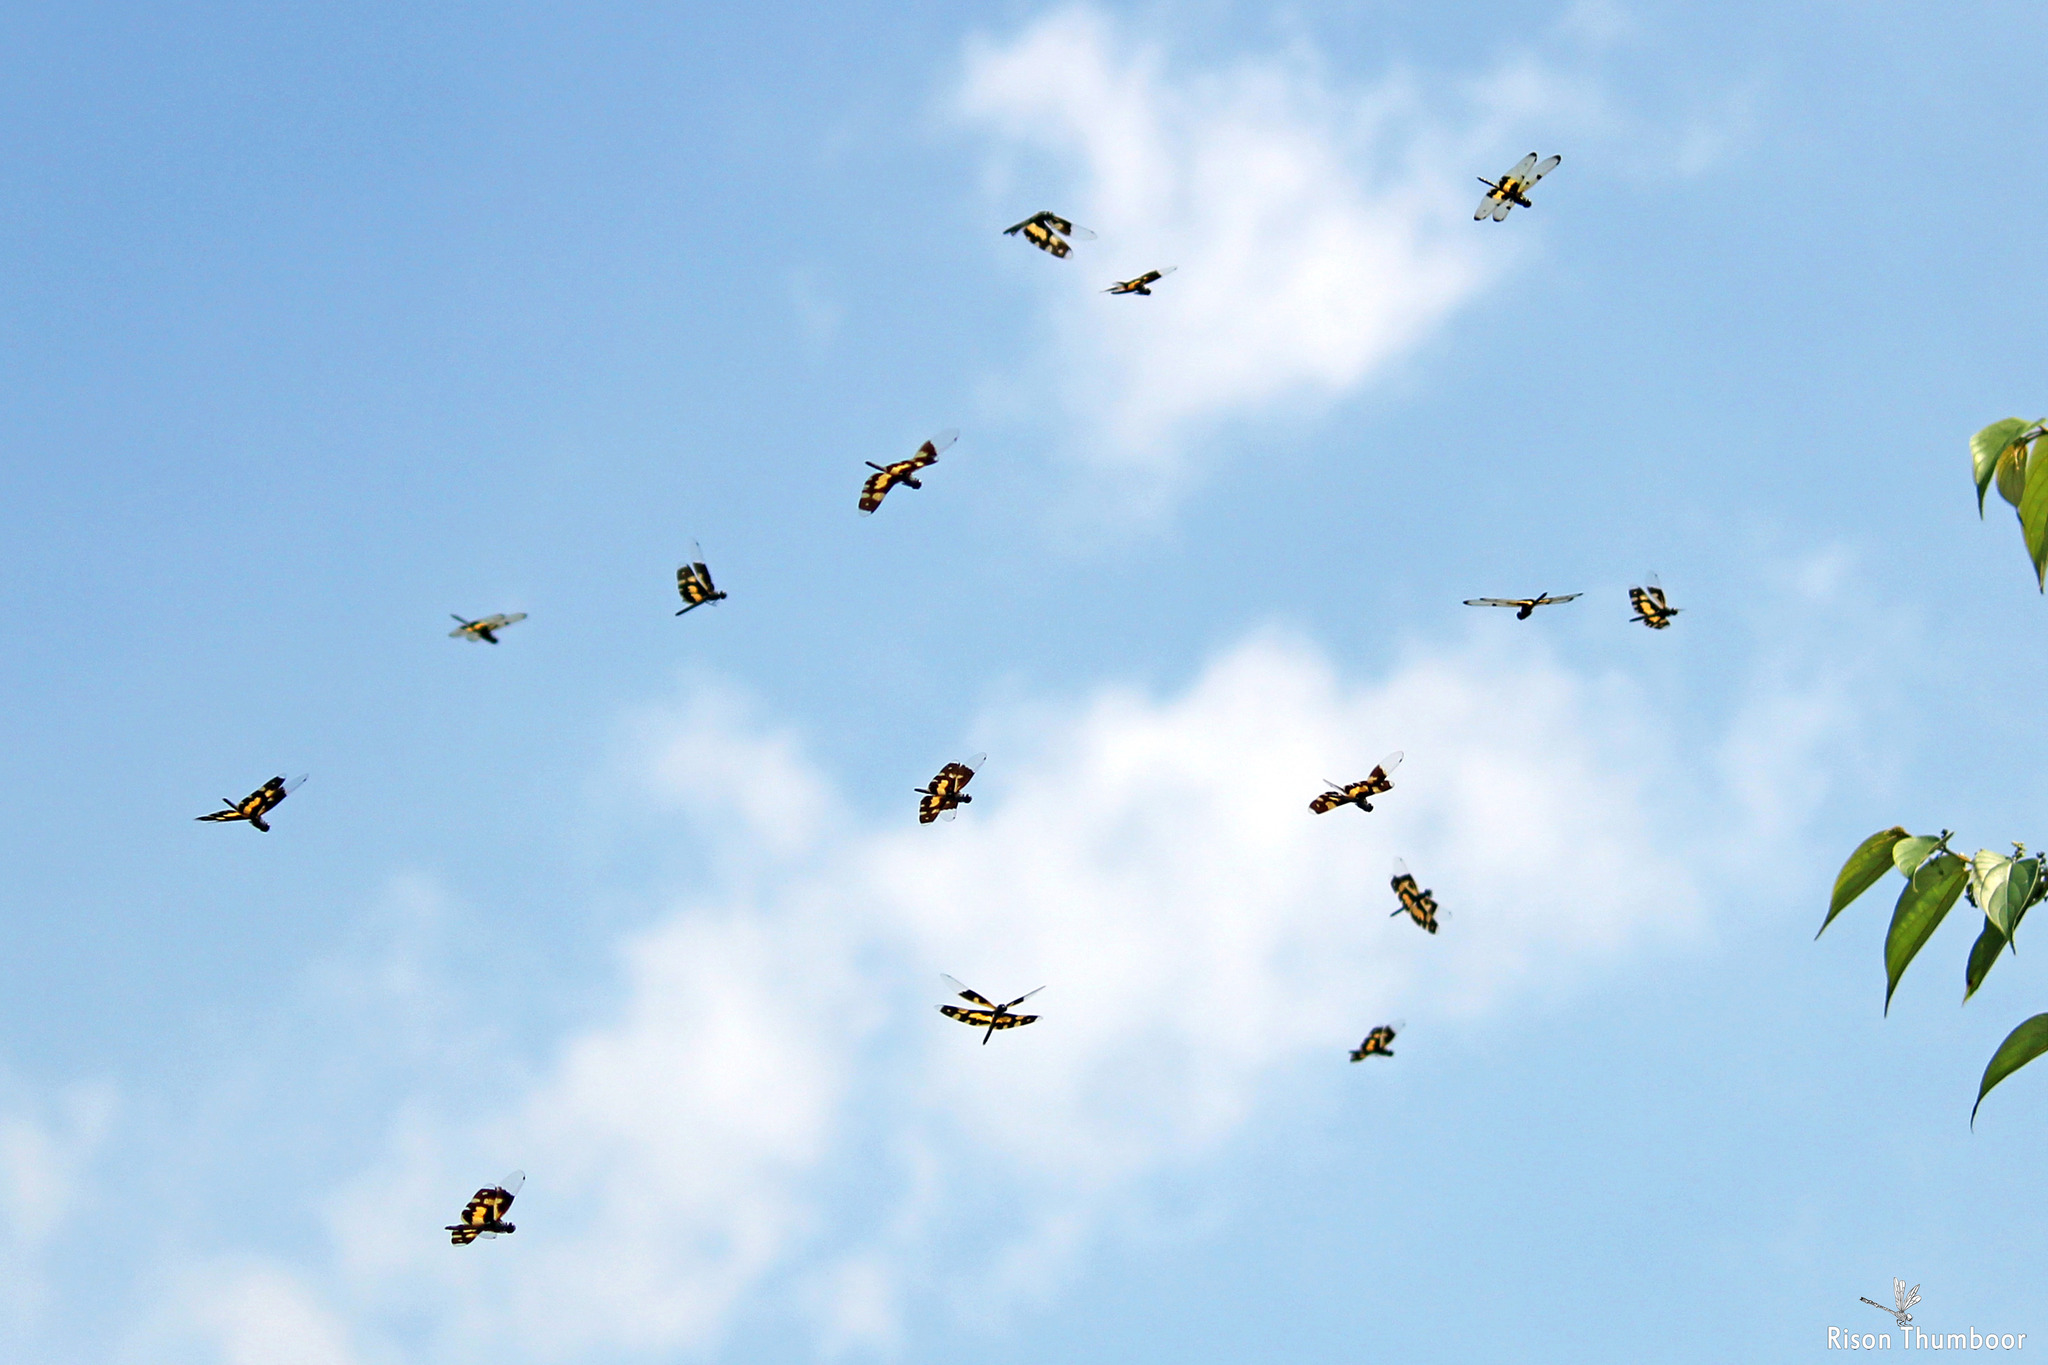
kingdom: Animalia
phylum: Arthropoda
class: Insecta
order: Odonata
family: Libellulidae
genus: Rhyothemis
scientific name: Rhyothemis variegata
